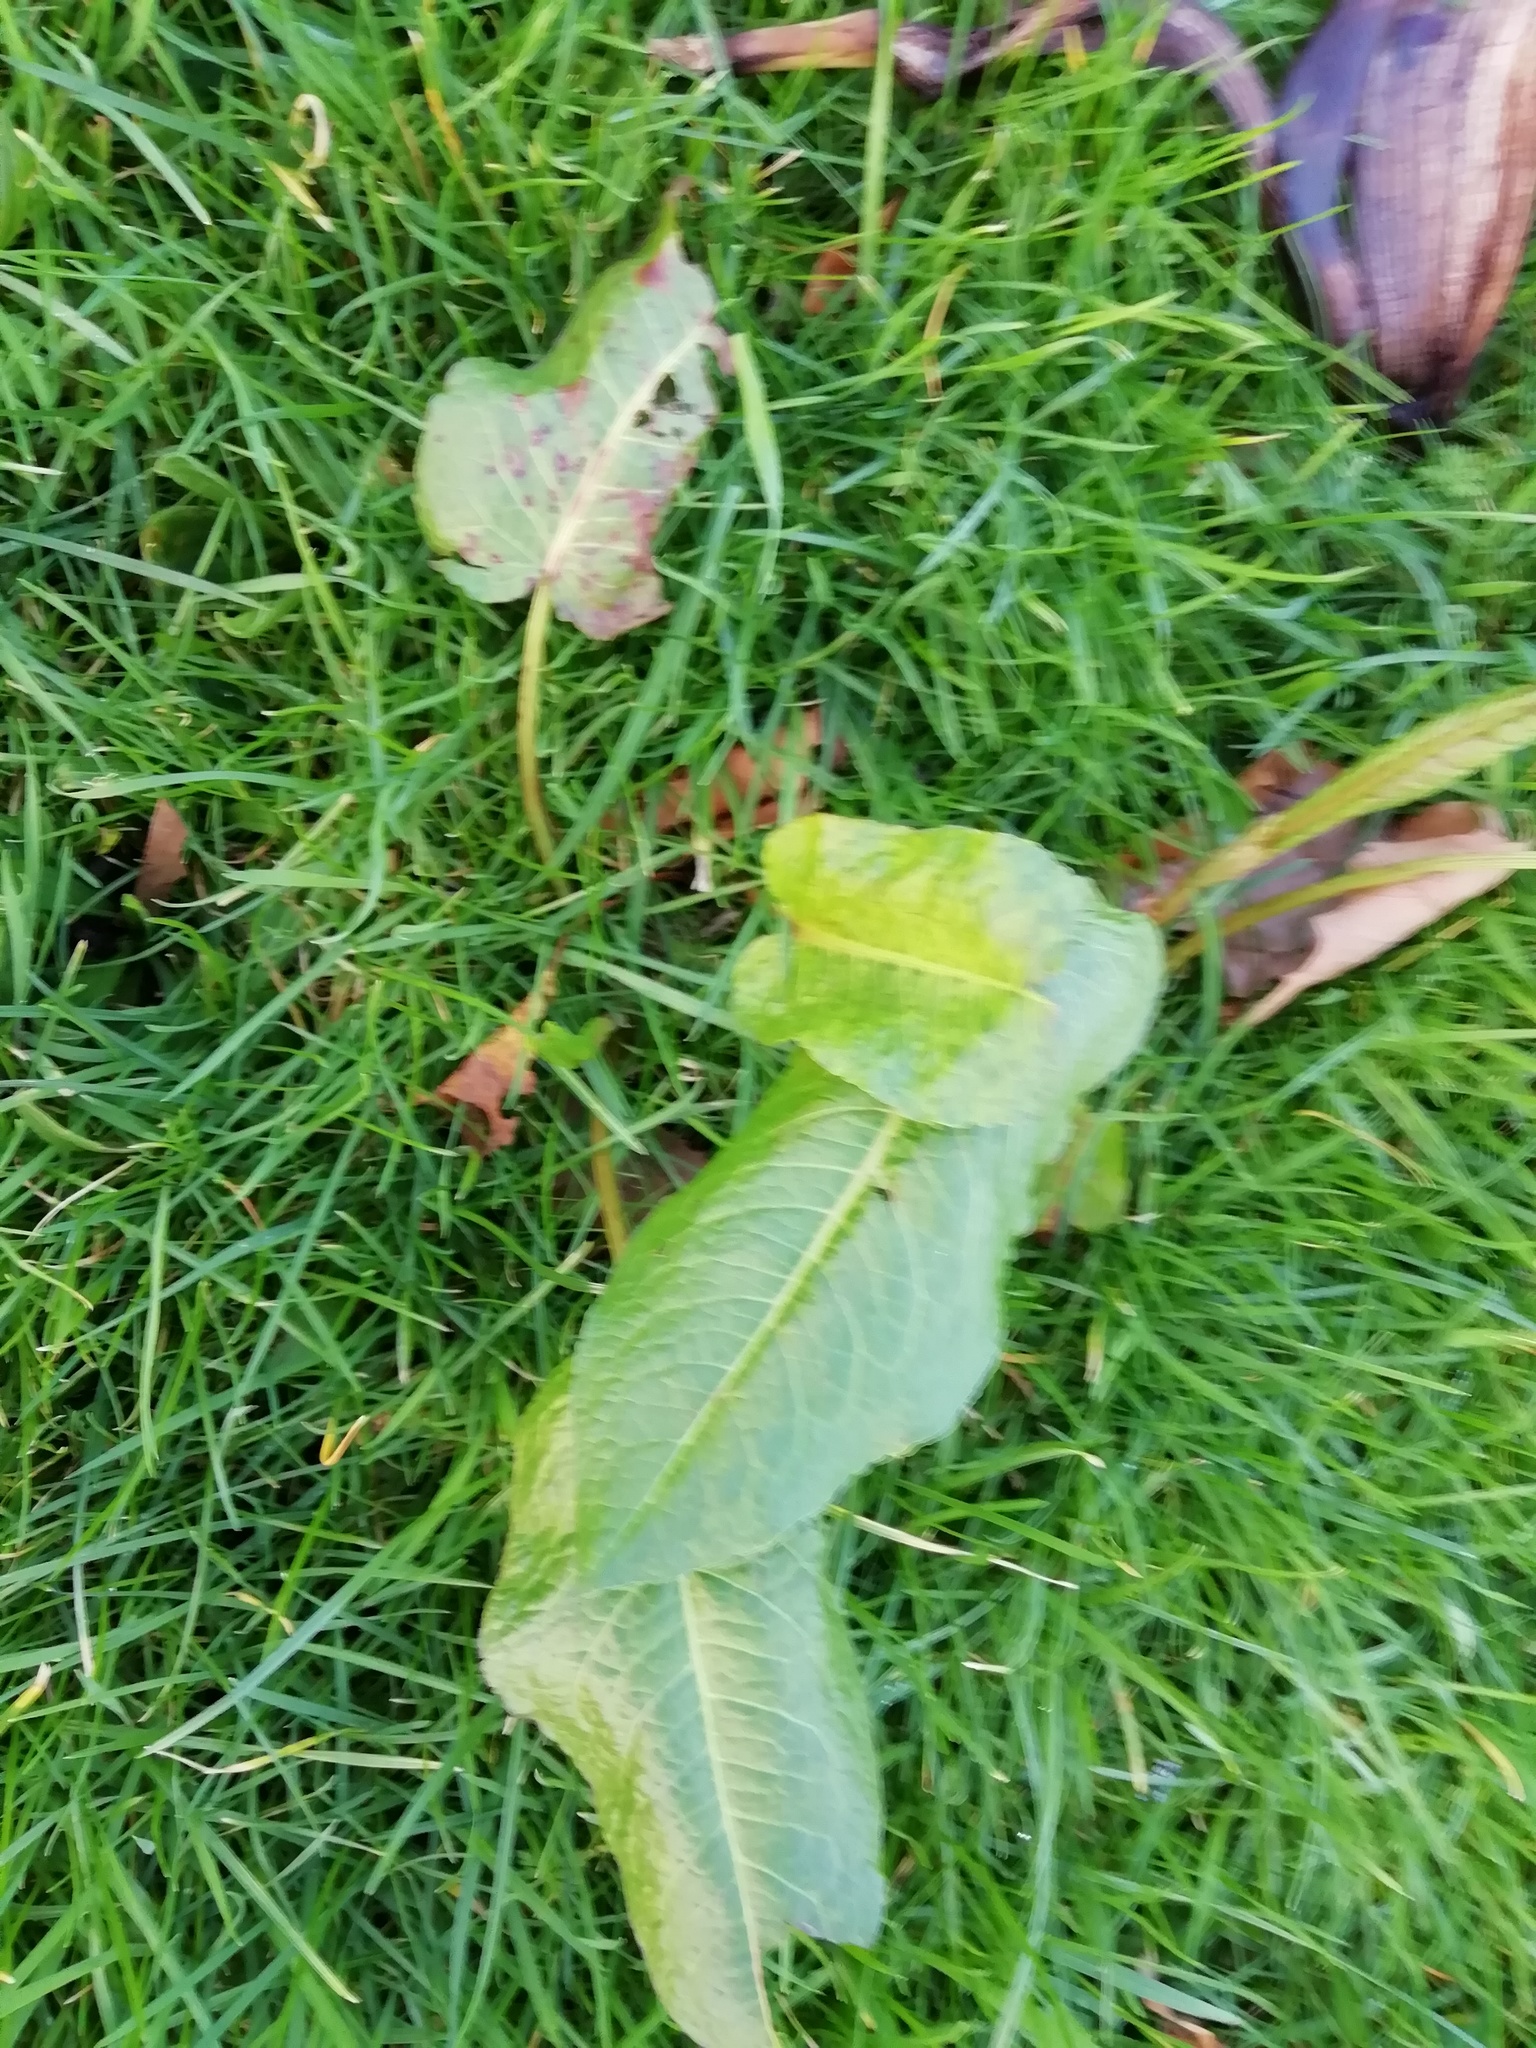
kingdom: Plantae
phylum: Tracheophyta
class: Magnoliopsida
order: Caryophyllales
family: Polygonaceae
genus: Rumex
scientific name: Rumex obtusifolius
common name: Bitter dock
